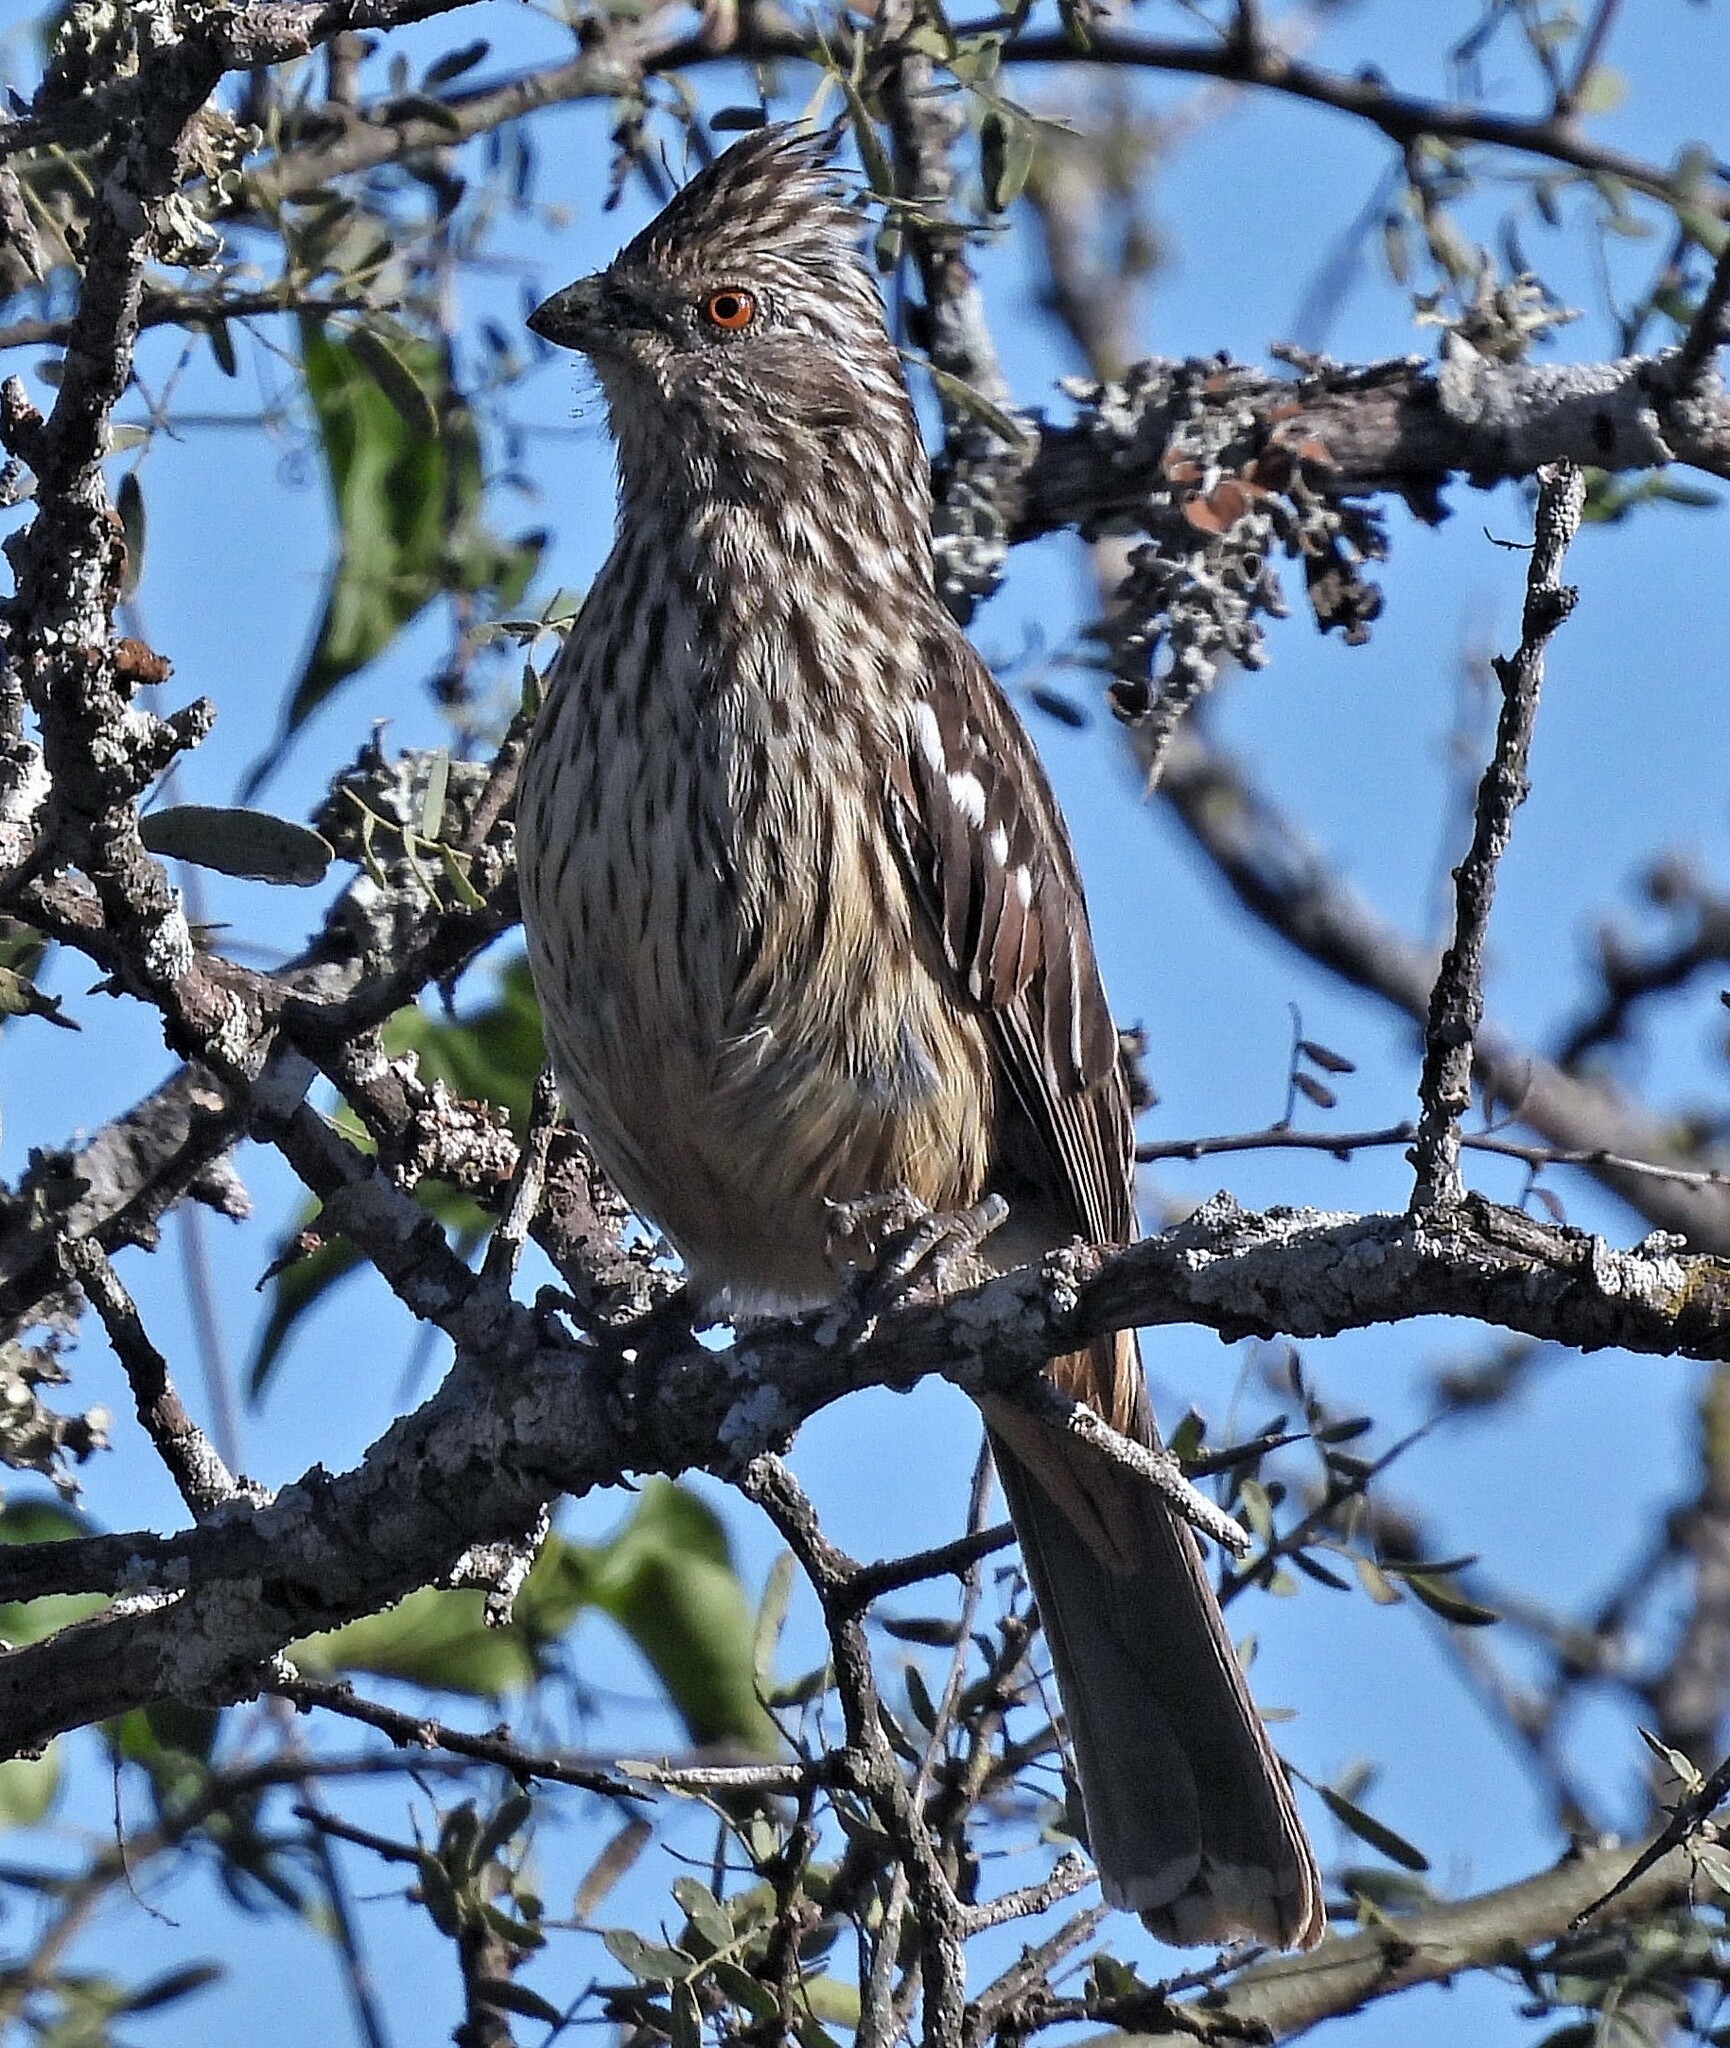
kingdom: Animalia
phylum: Chordata
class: Aves
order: Passeriformes
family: Cotingidae
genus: Phytotoma
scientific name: Phytotoma rutila
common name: White-tipped plantcutter
